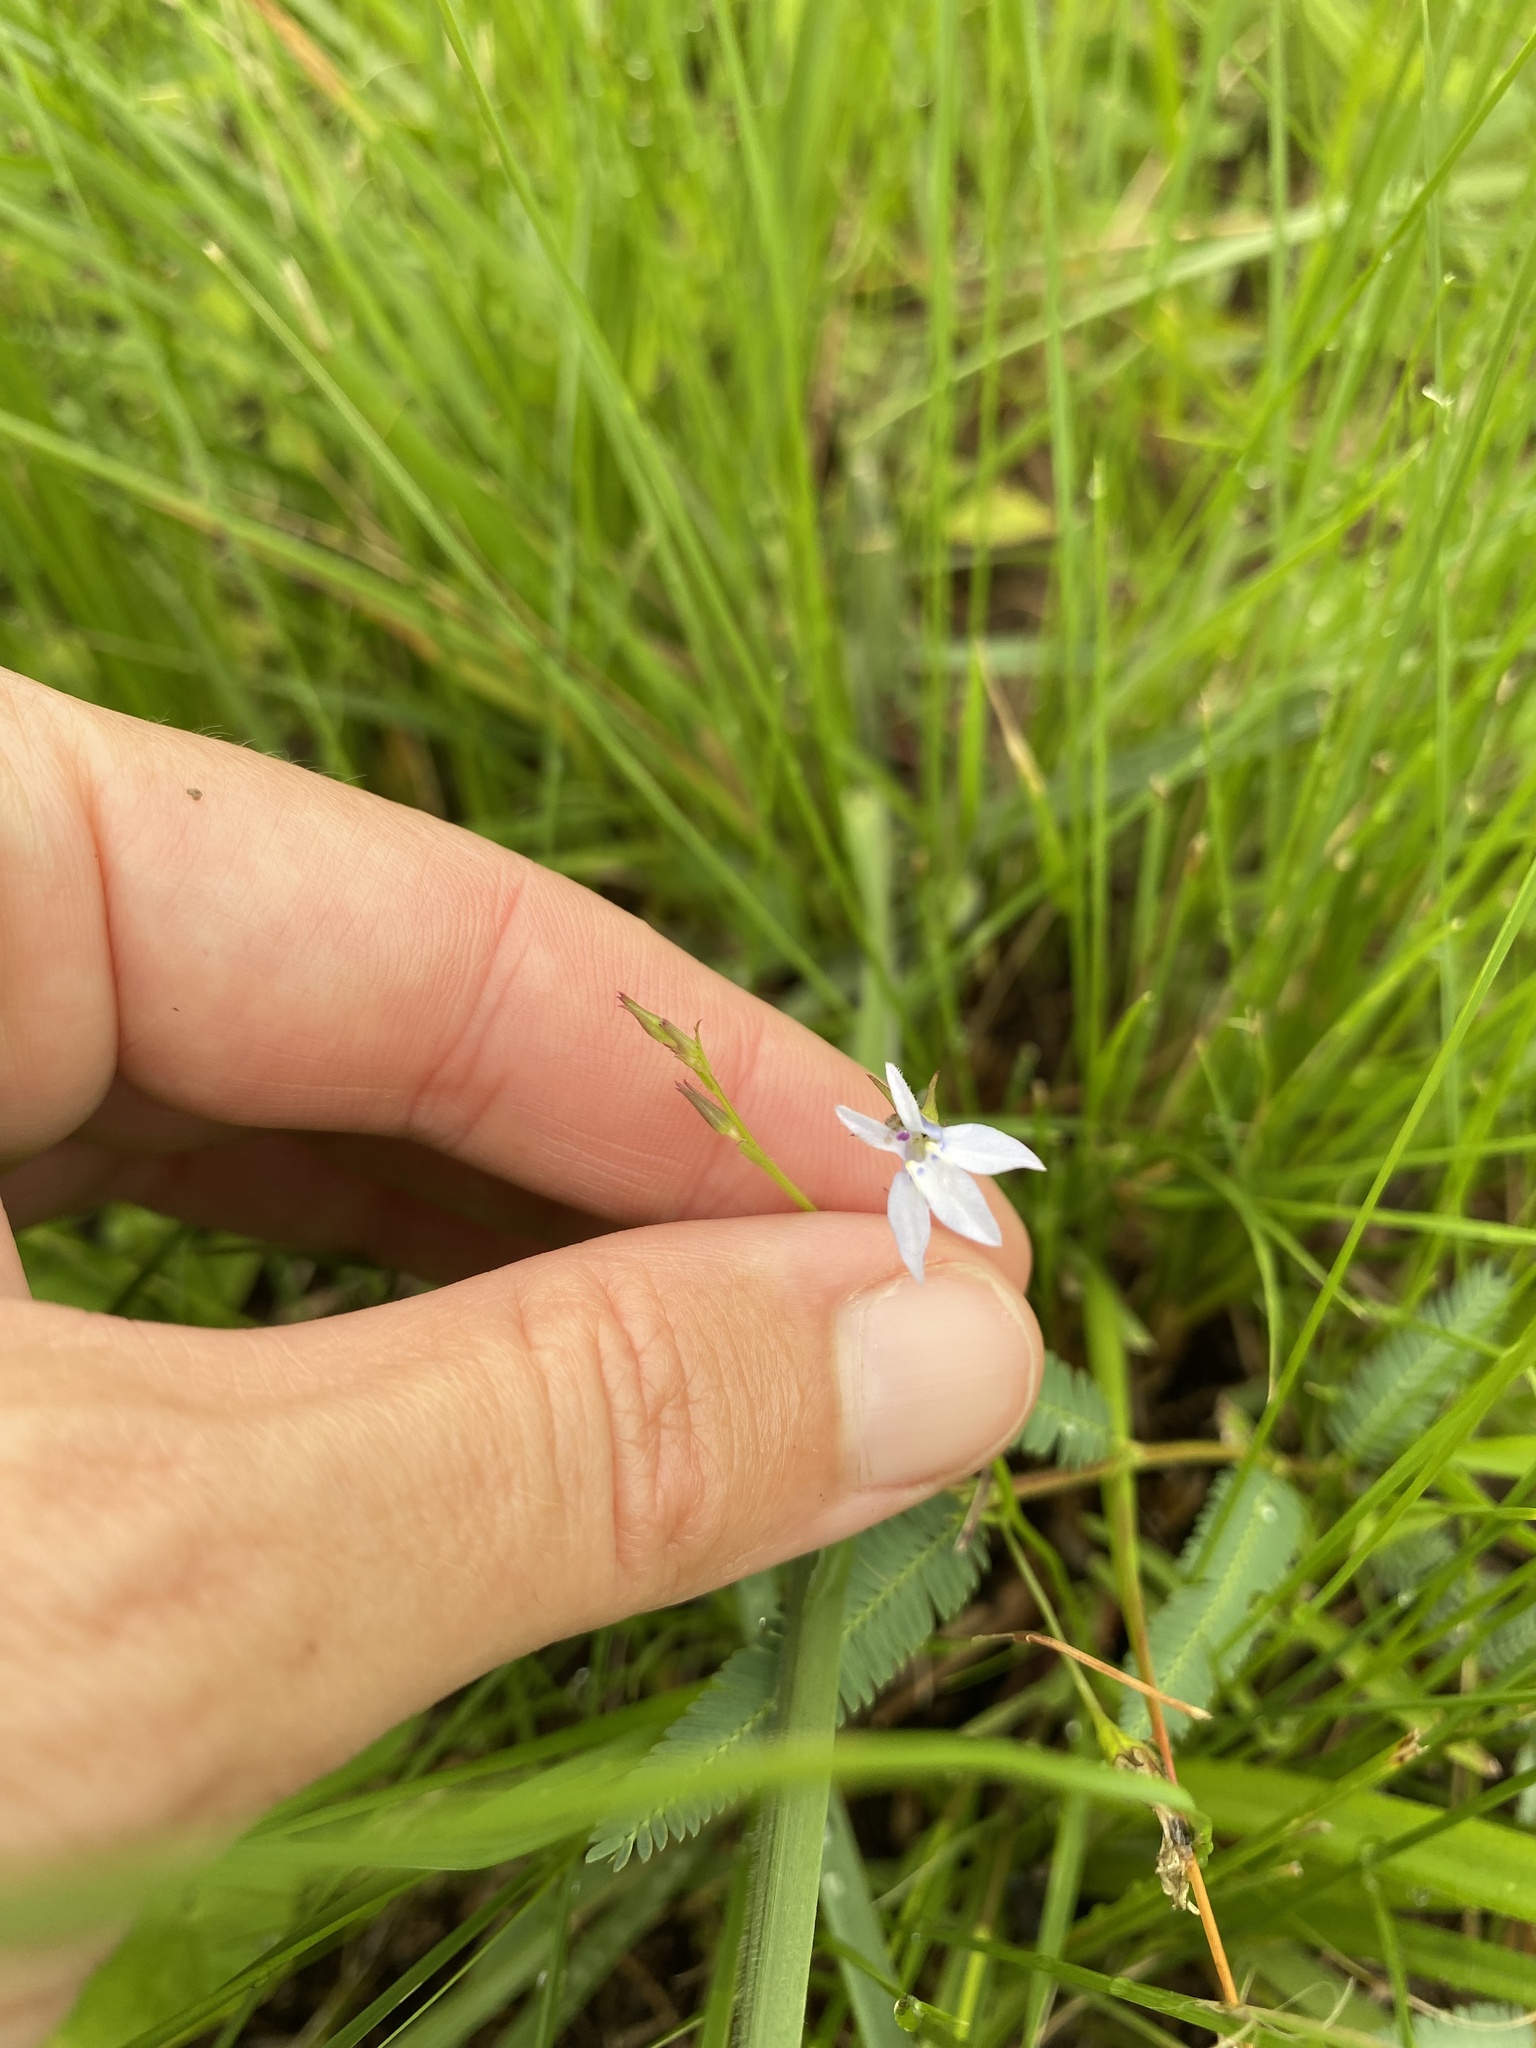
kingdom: Plantae
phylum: Tracheophyta
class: Magnoliopsida
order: Asterales
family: Campanulaceae
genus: Lobelia
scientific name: Lobelia flaccida
